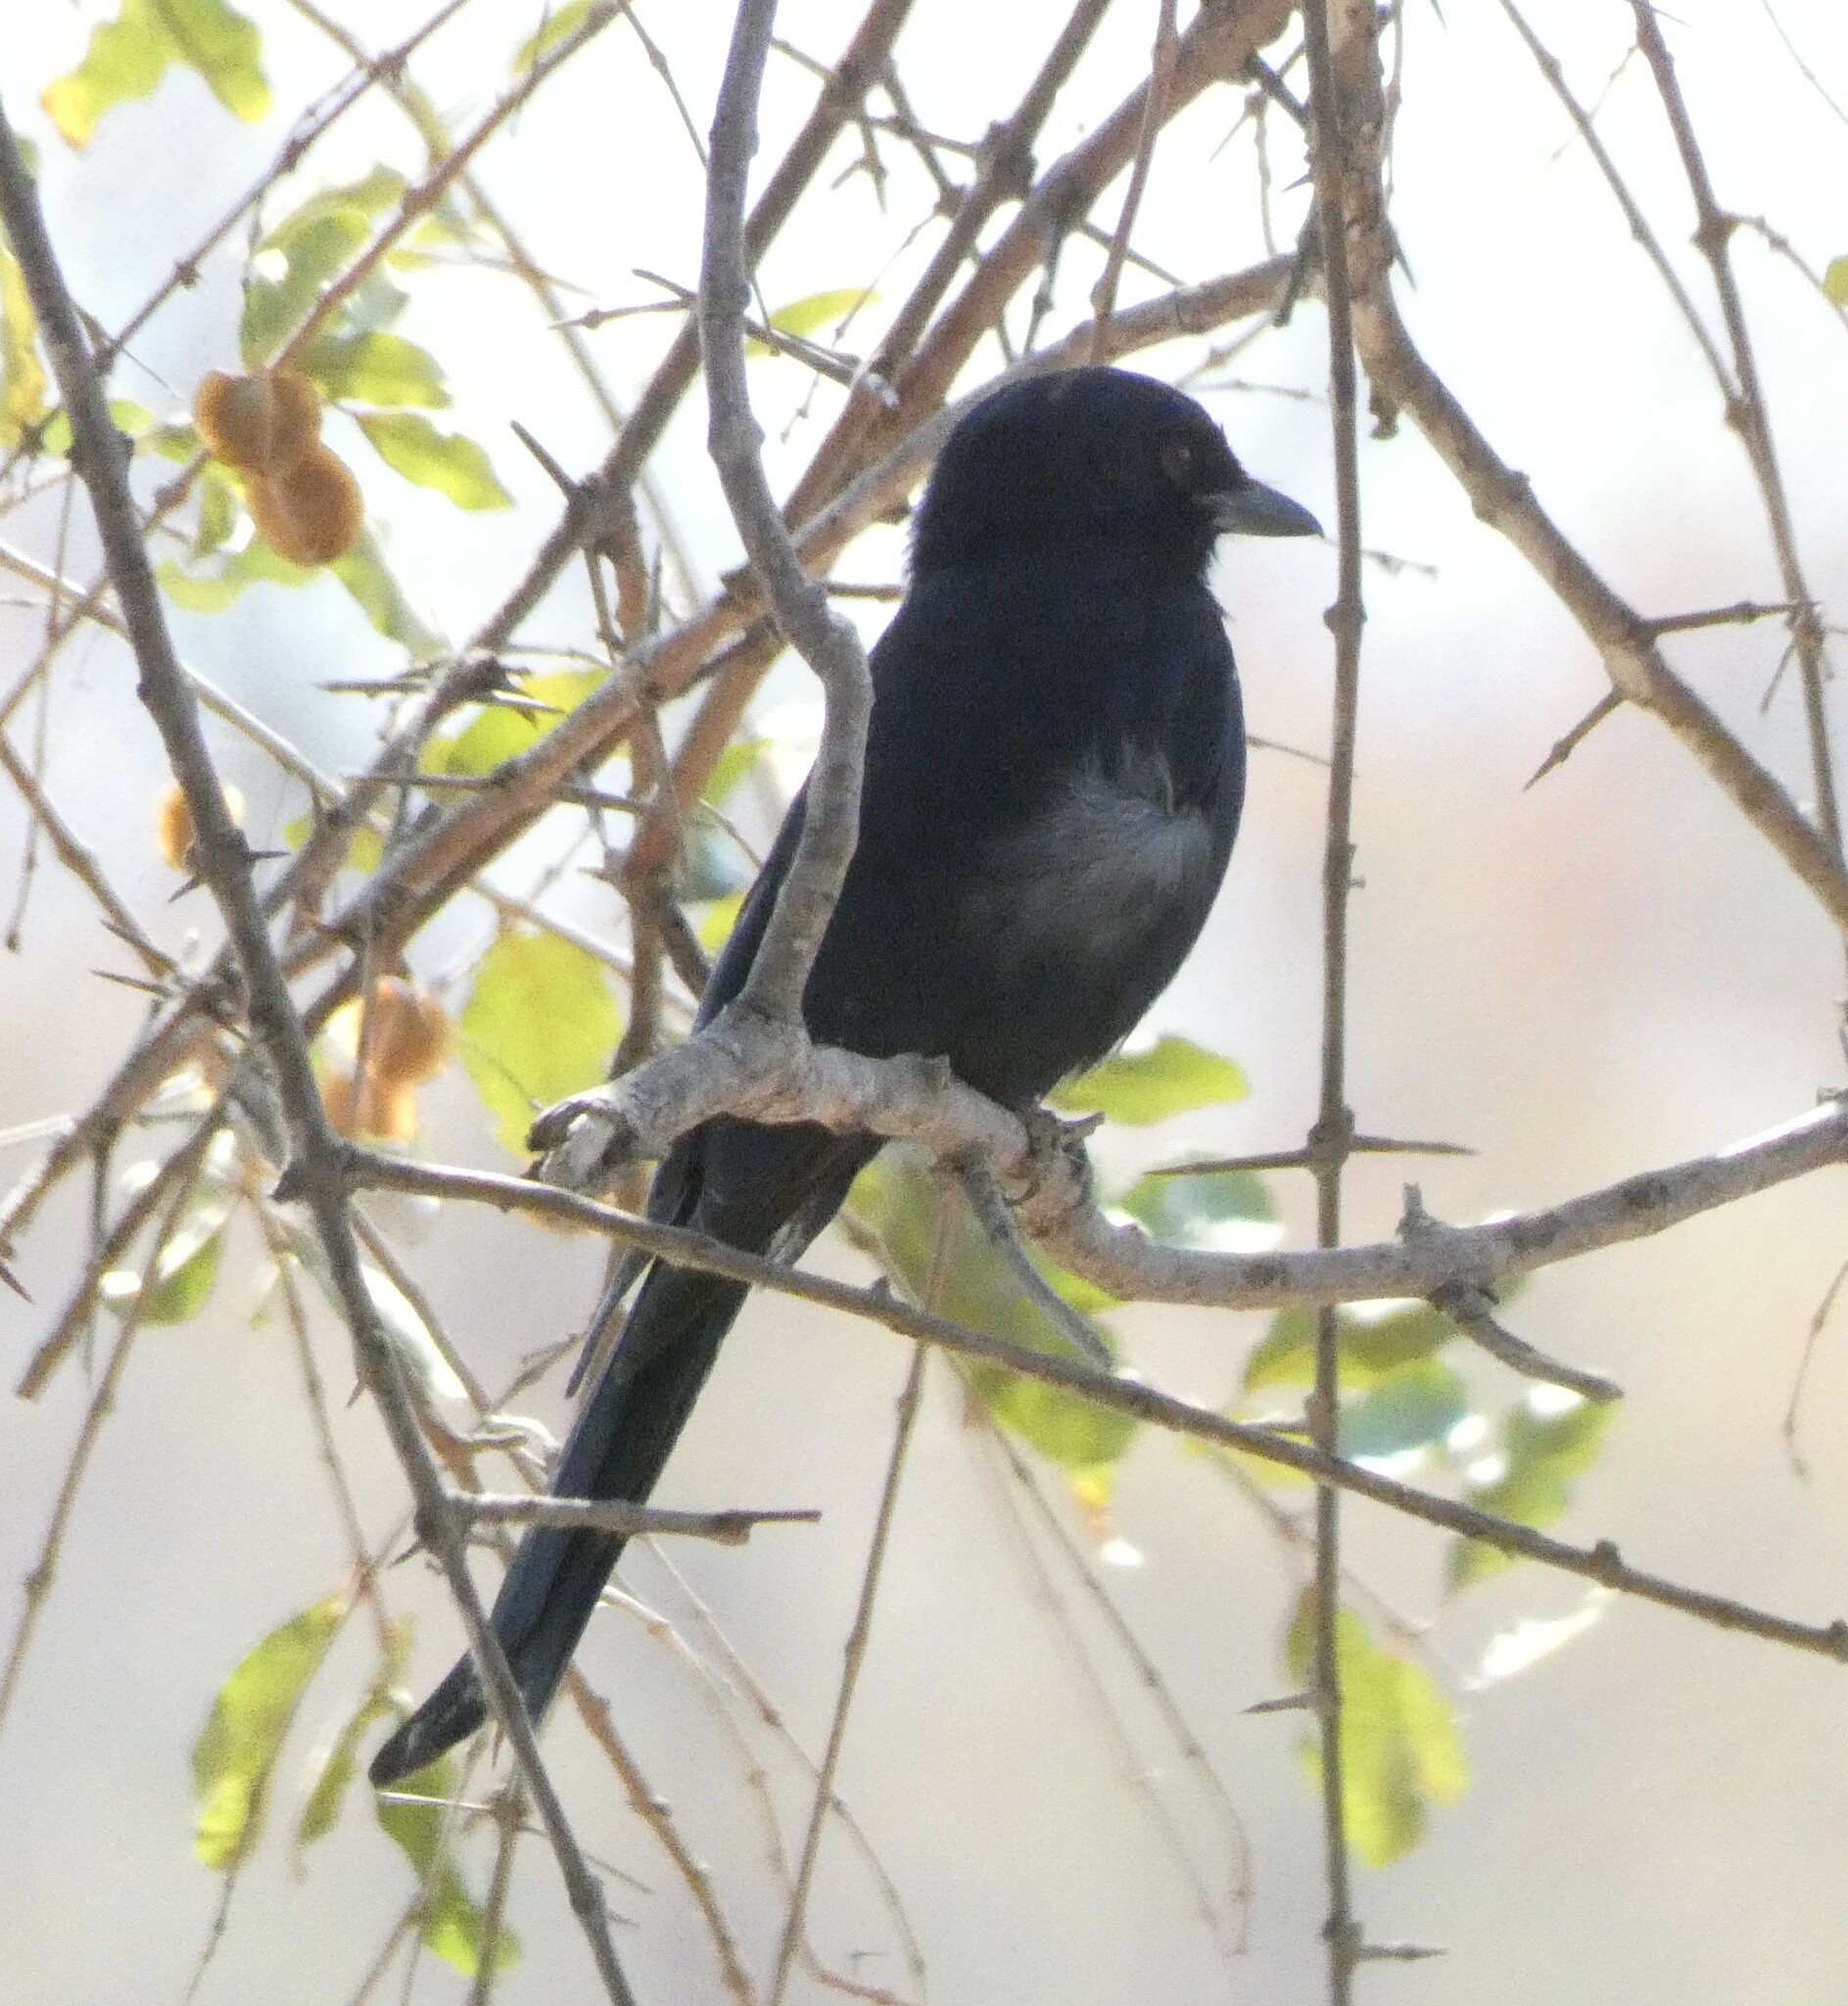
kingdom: Animalia
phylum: Chordata
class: Aves
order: Passeriformes
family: Dicruridae
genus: Dicrurus
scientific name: Dicrurus adsimilis
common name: Fork-tailed drongo
